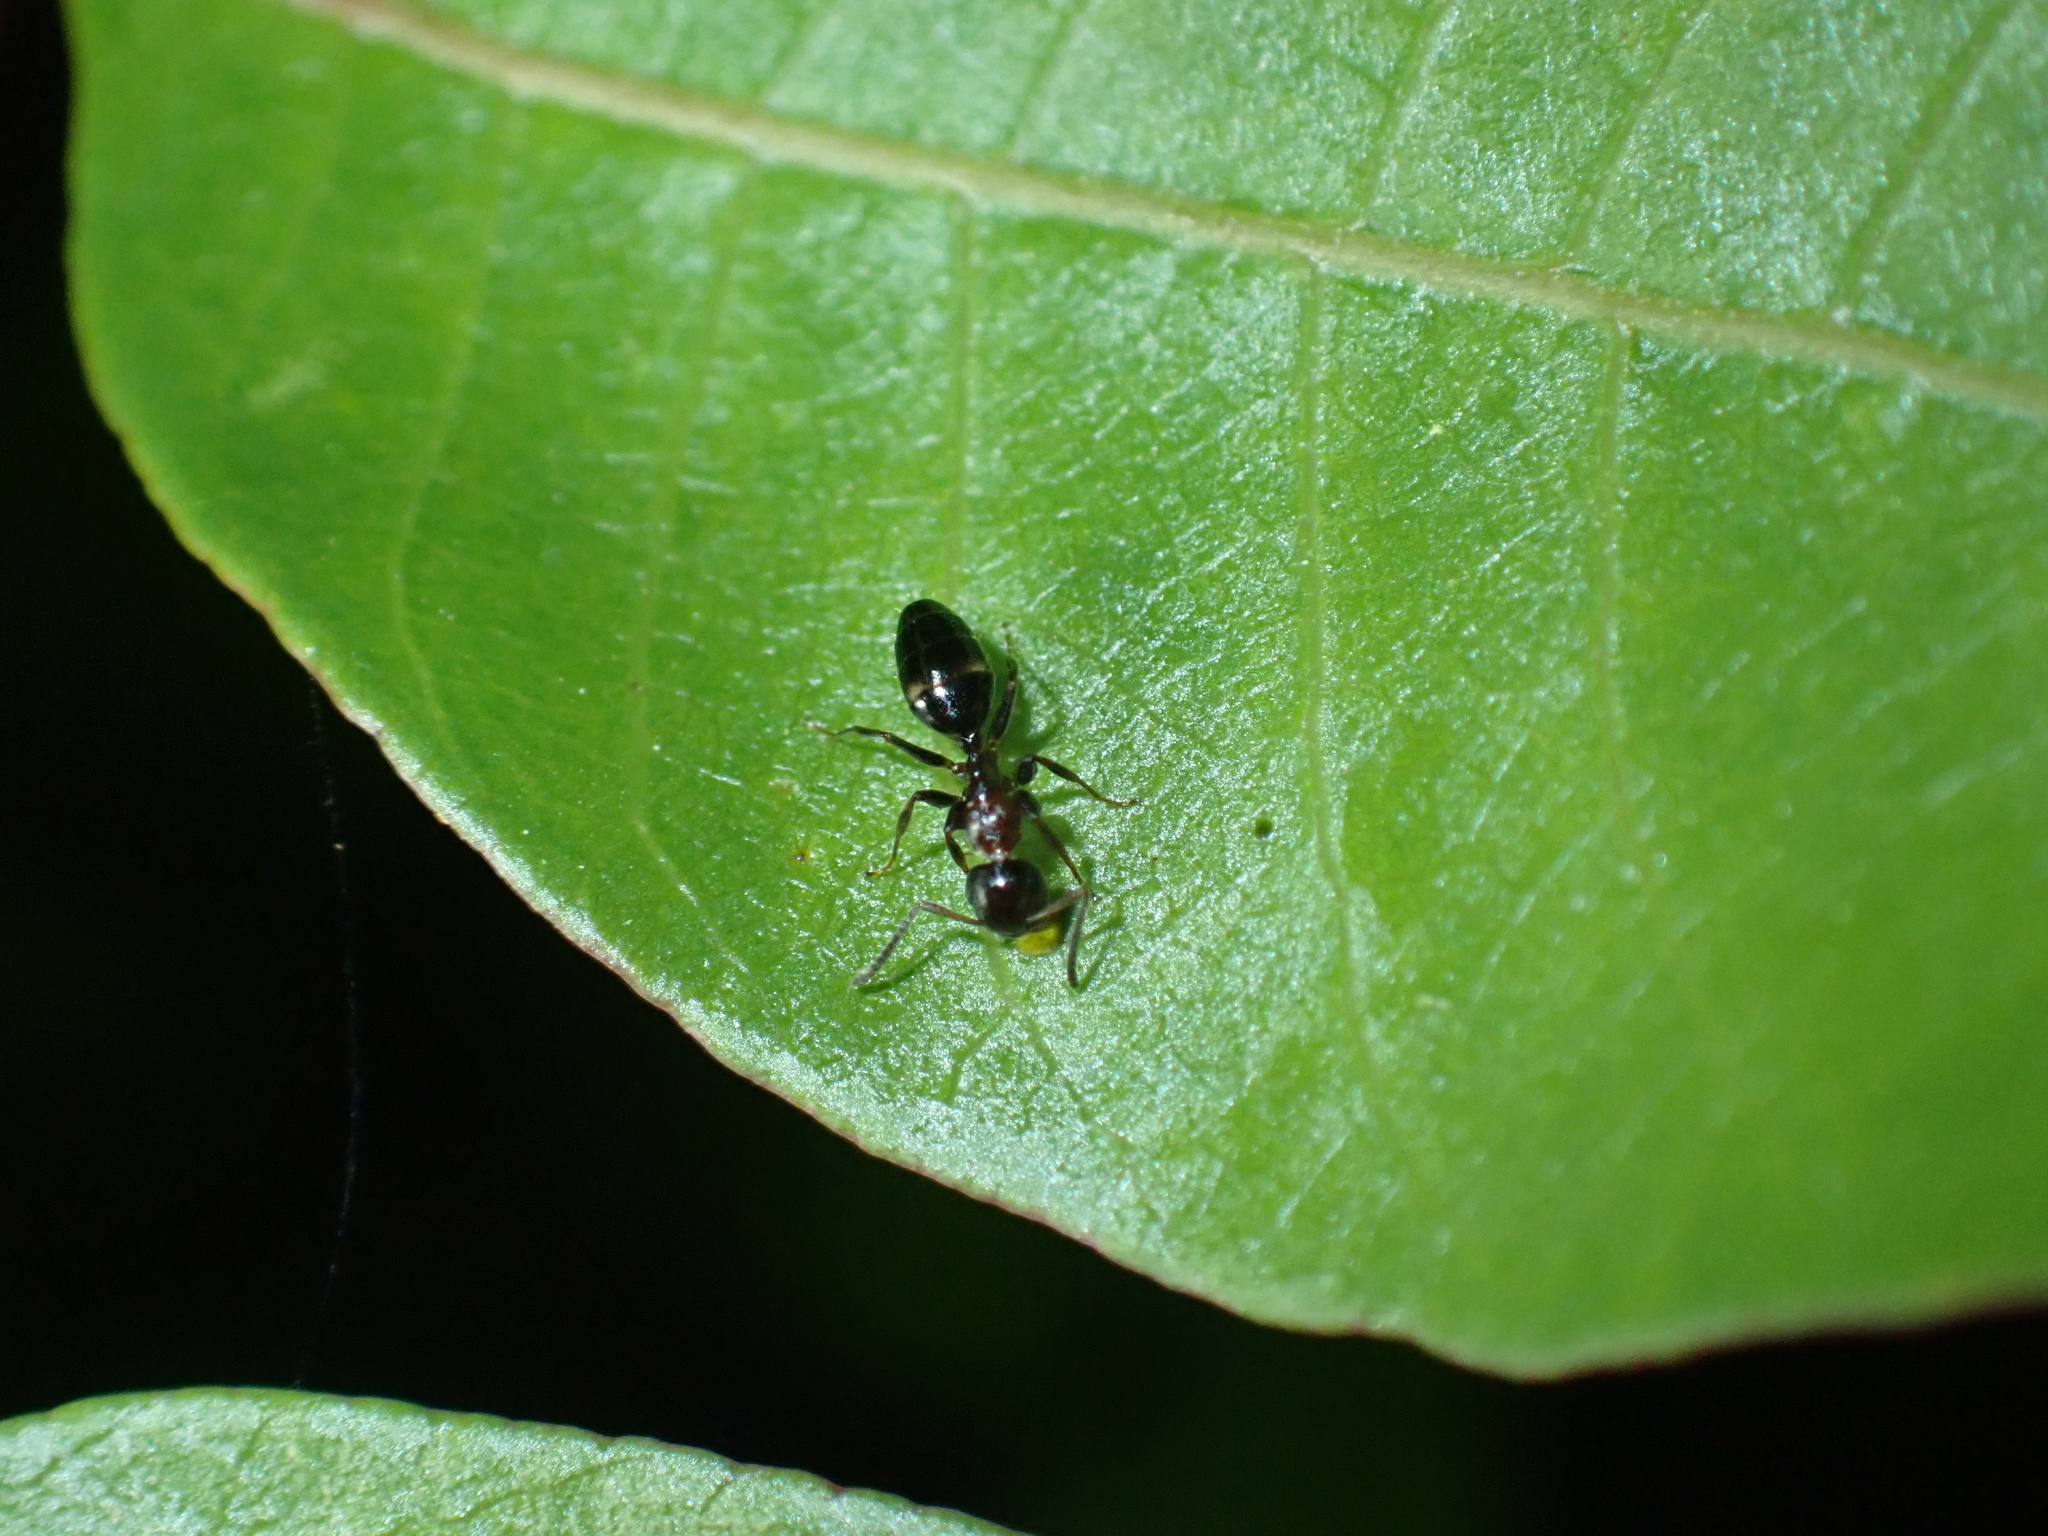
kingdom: Animalia
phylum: Arthropoda
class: Insecta
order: Hymenoptera
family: Formicidae
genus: Camponotus
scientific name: Camponotus truncatus
